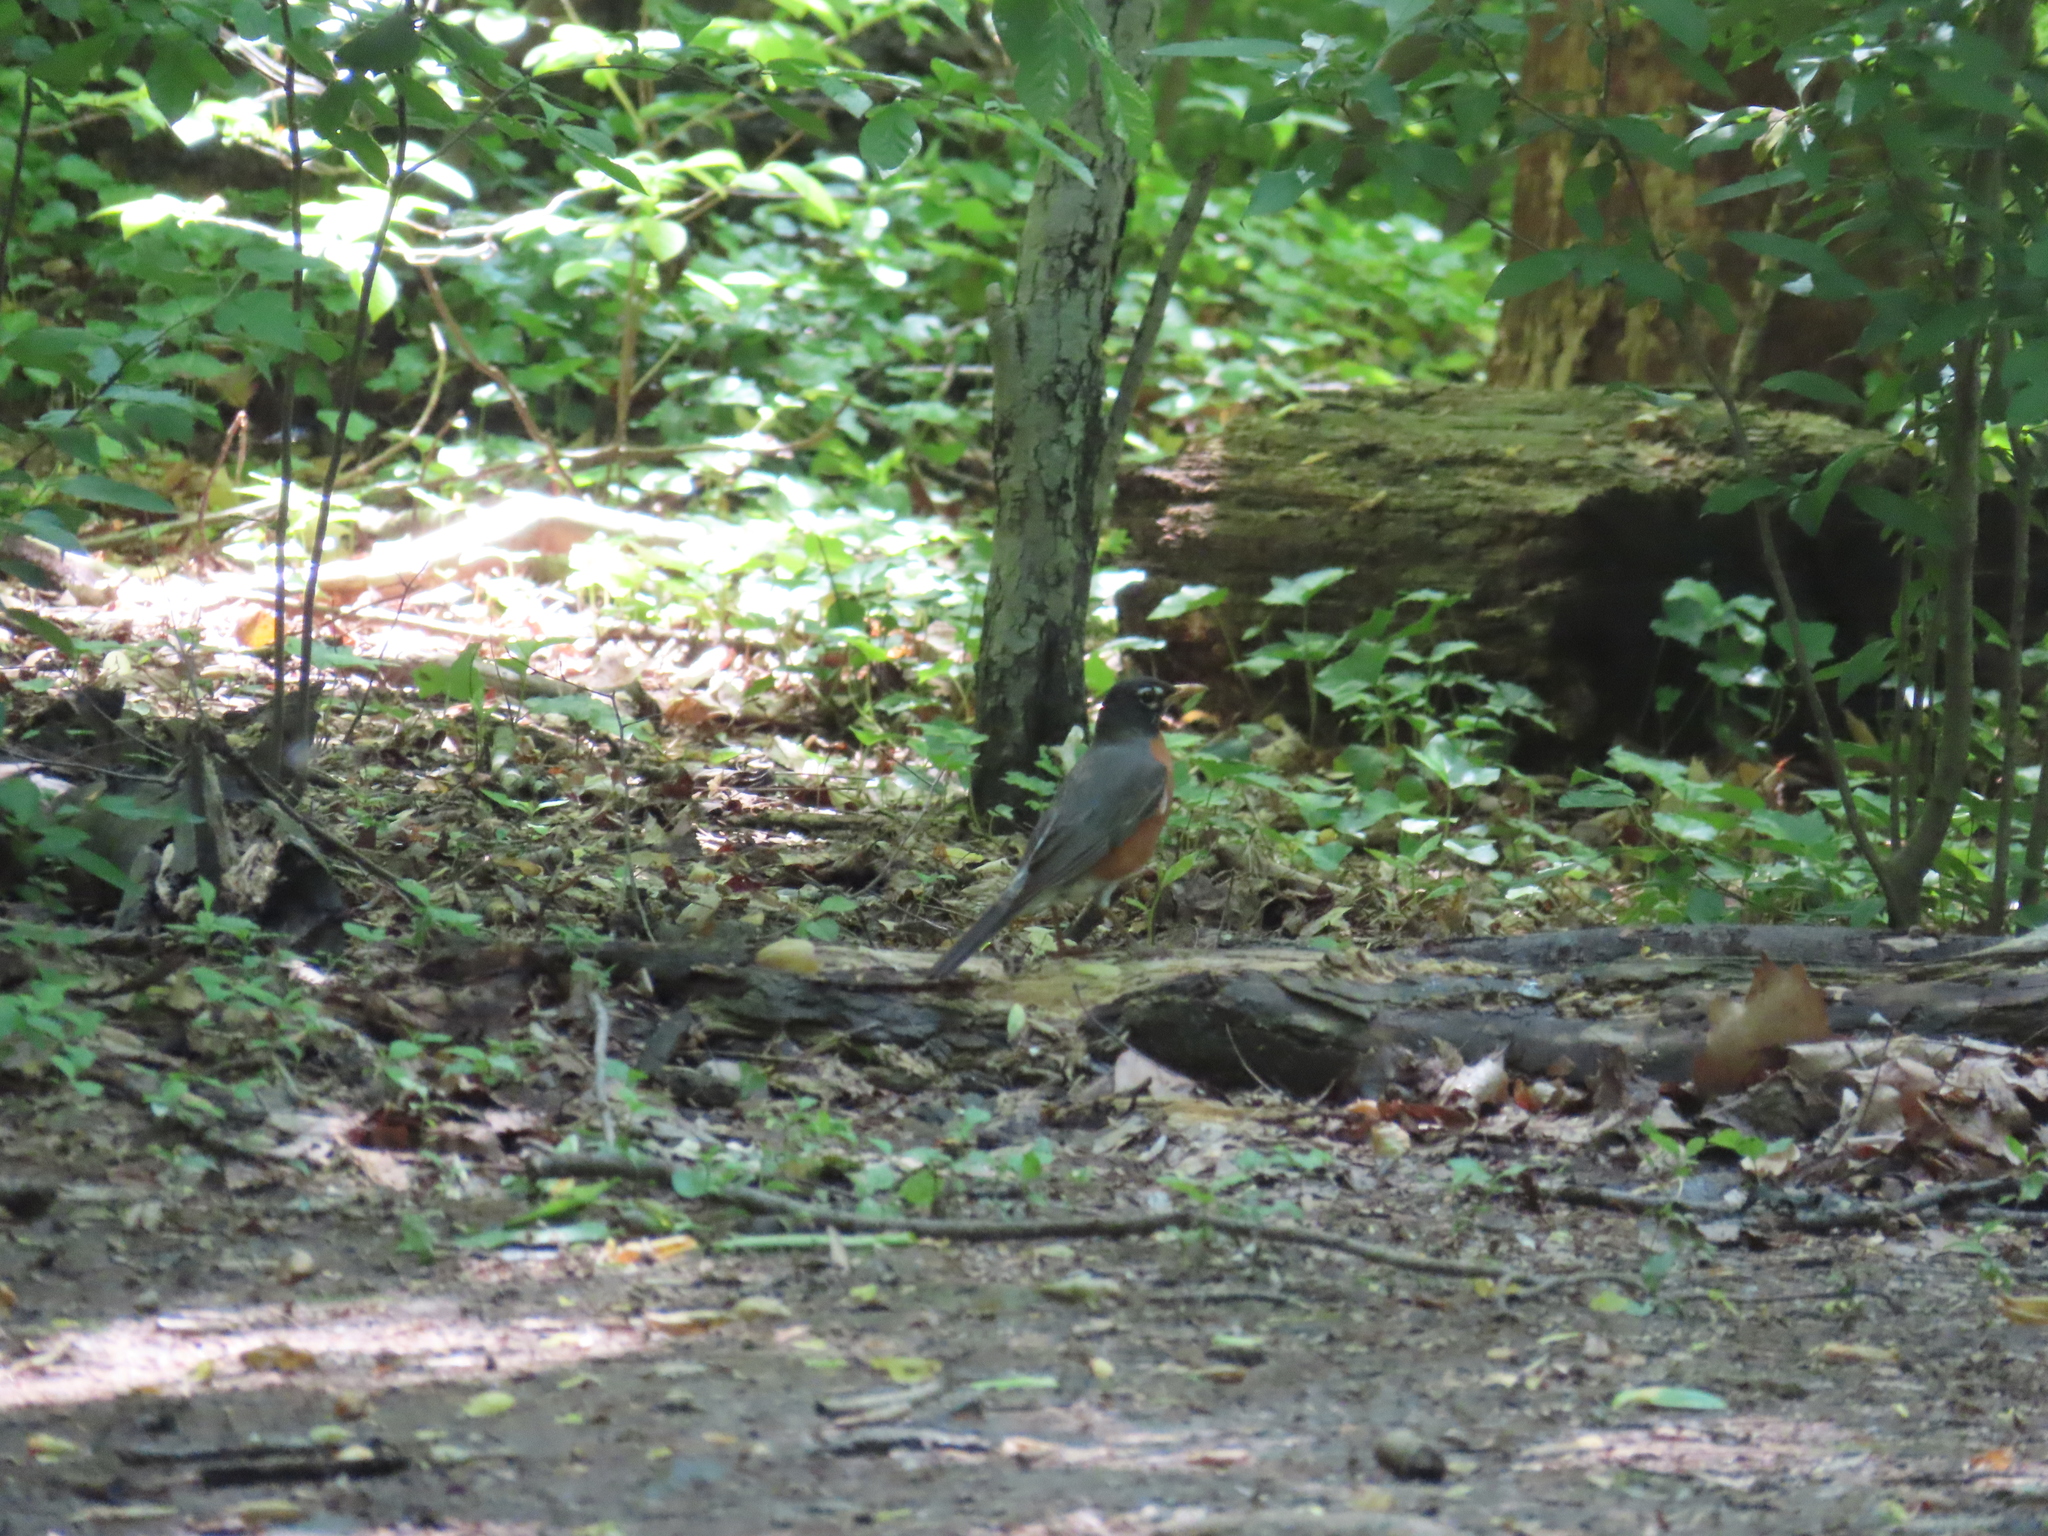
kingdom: Animalia
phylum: Chordata
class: Aves
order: Passeriformes
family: Turdidae
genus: Turdus
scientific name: Turdus migratorius
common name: American robin
